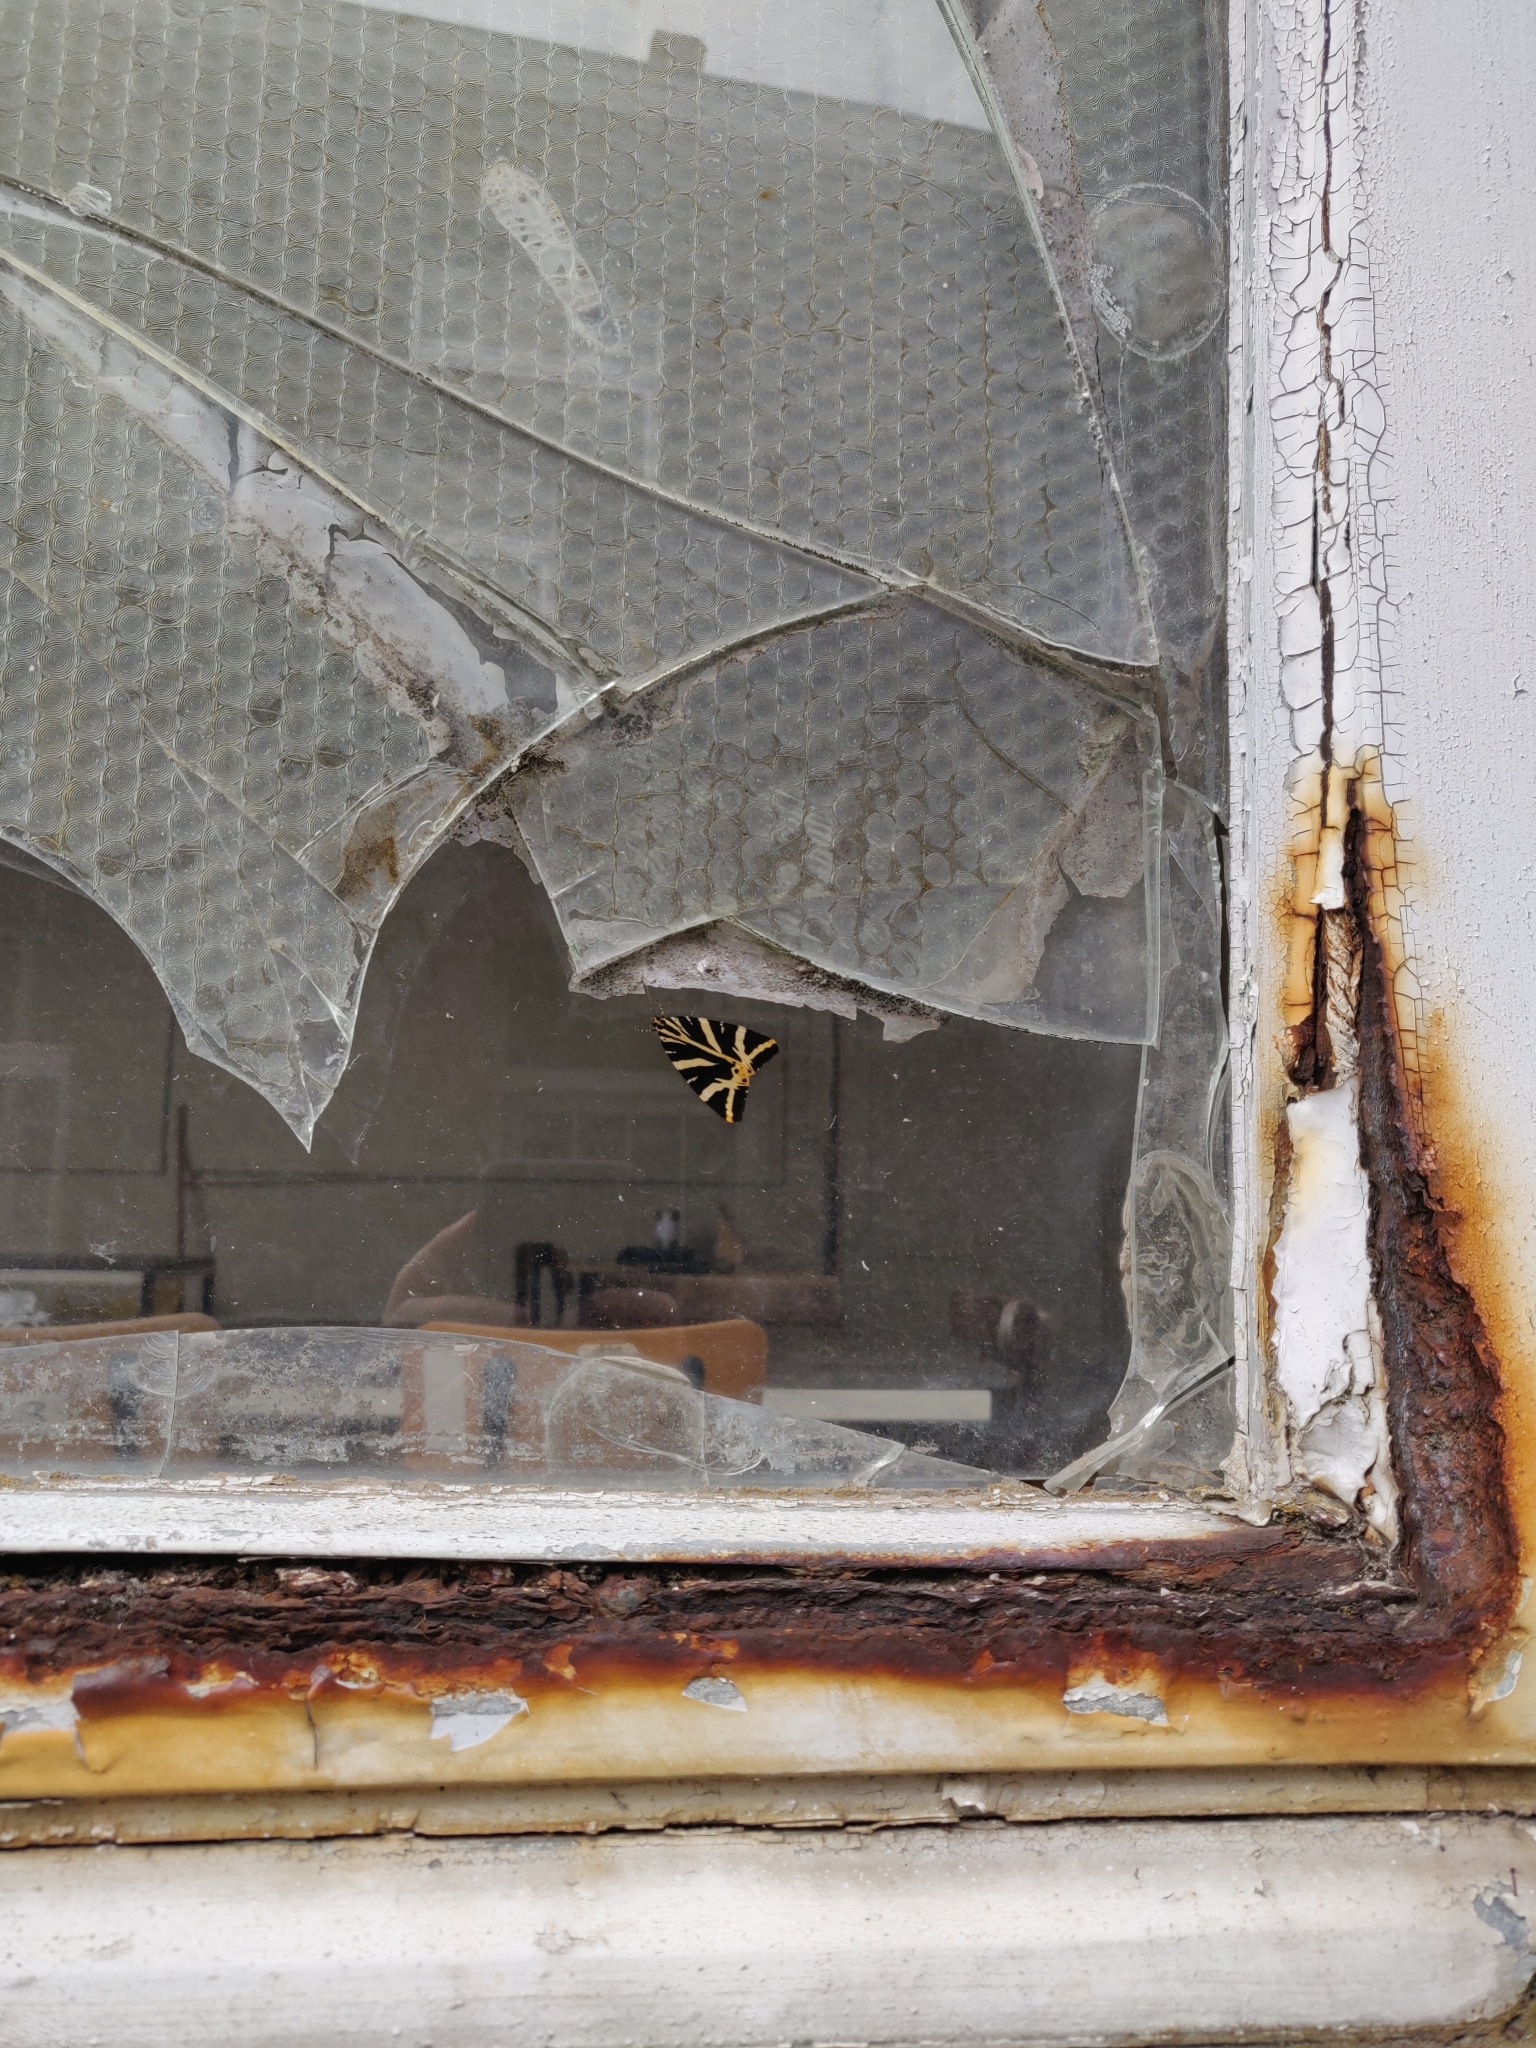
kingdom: Animalia
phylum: Arthropoda
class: Insecta
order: Lepidoptera
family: Erebidae
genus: Euplagia
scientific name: Euplagia quadripunctaria
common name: Jersey tiger
